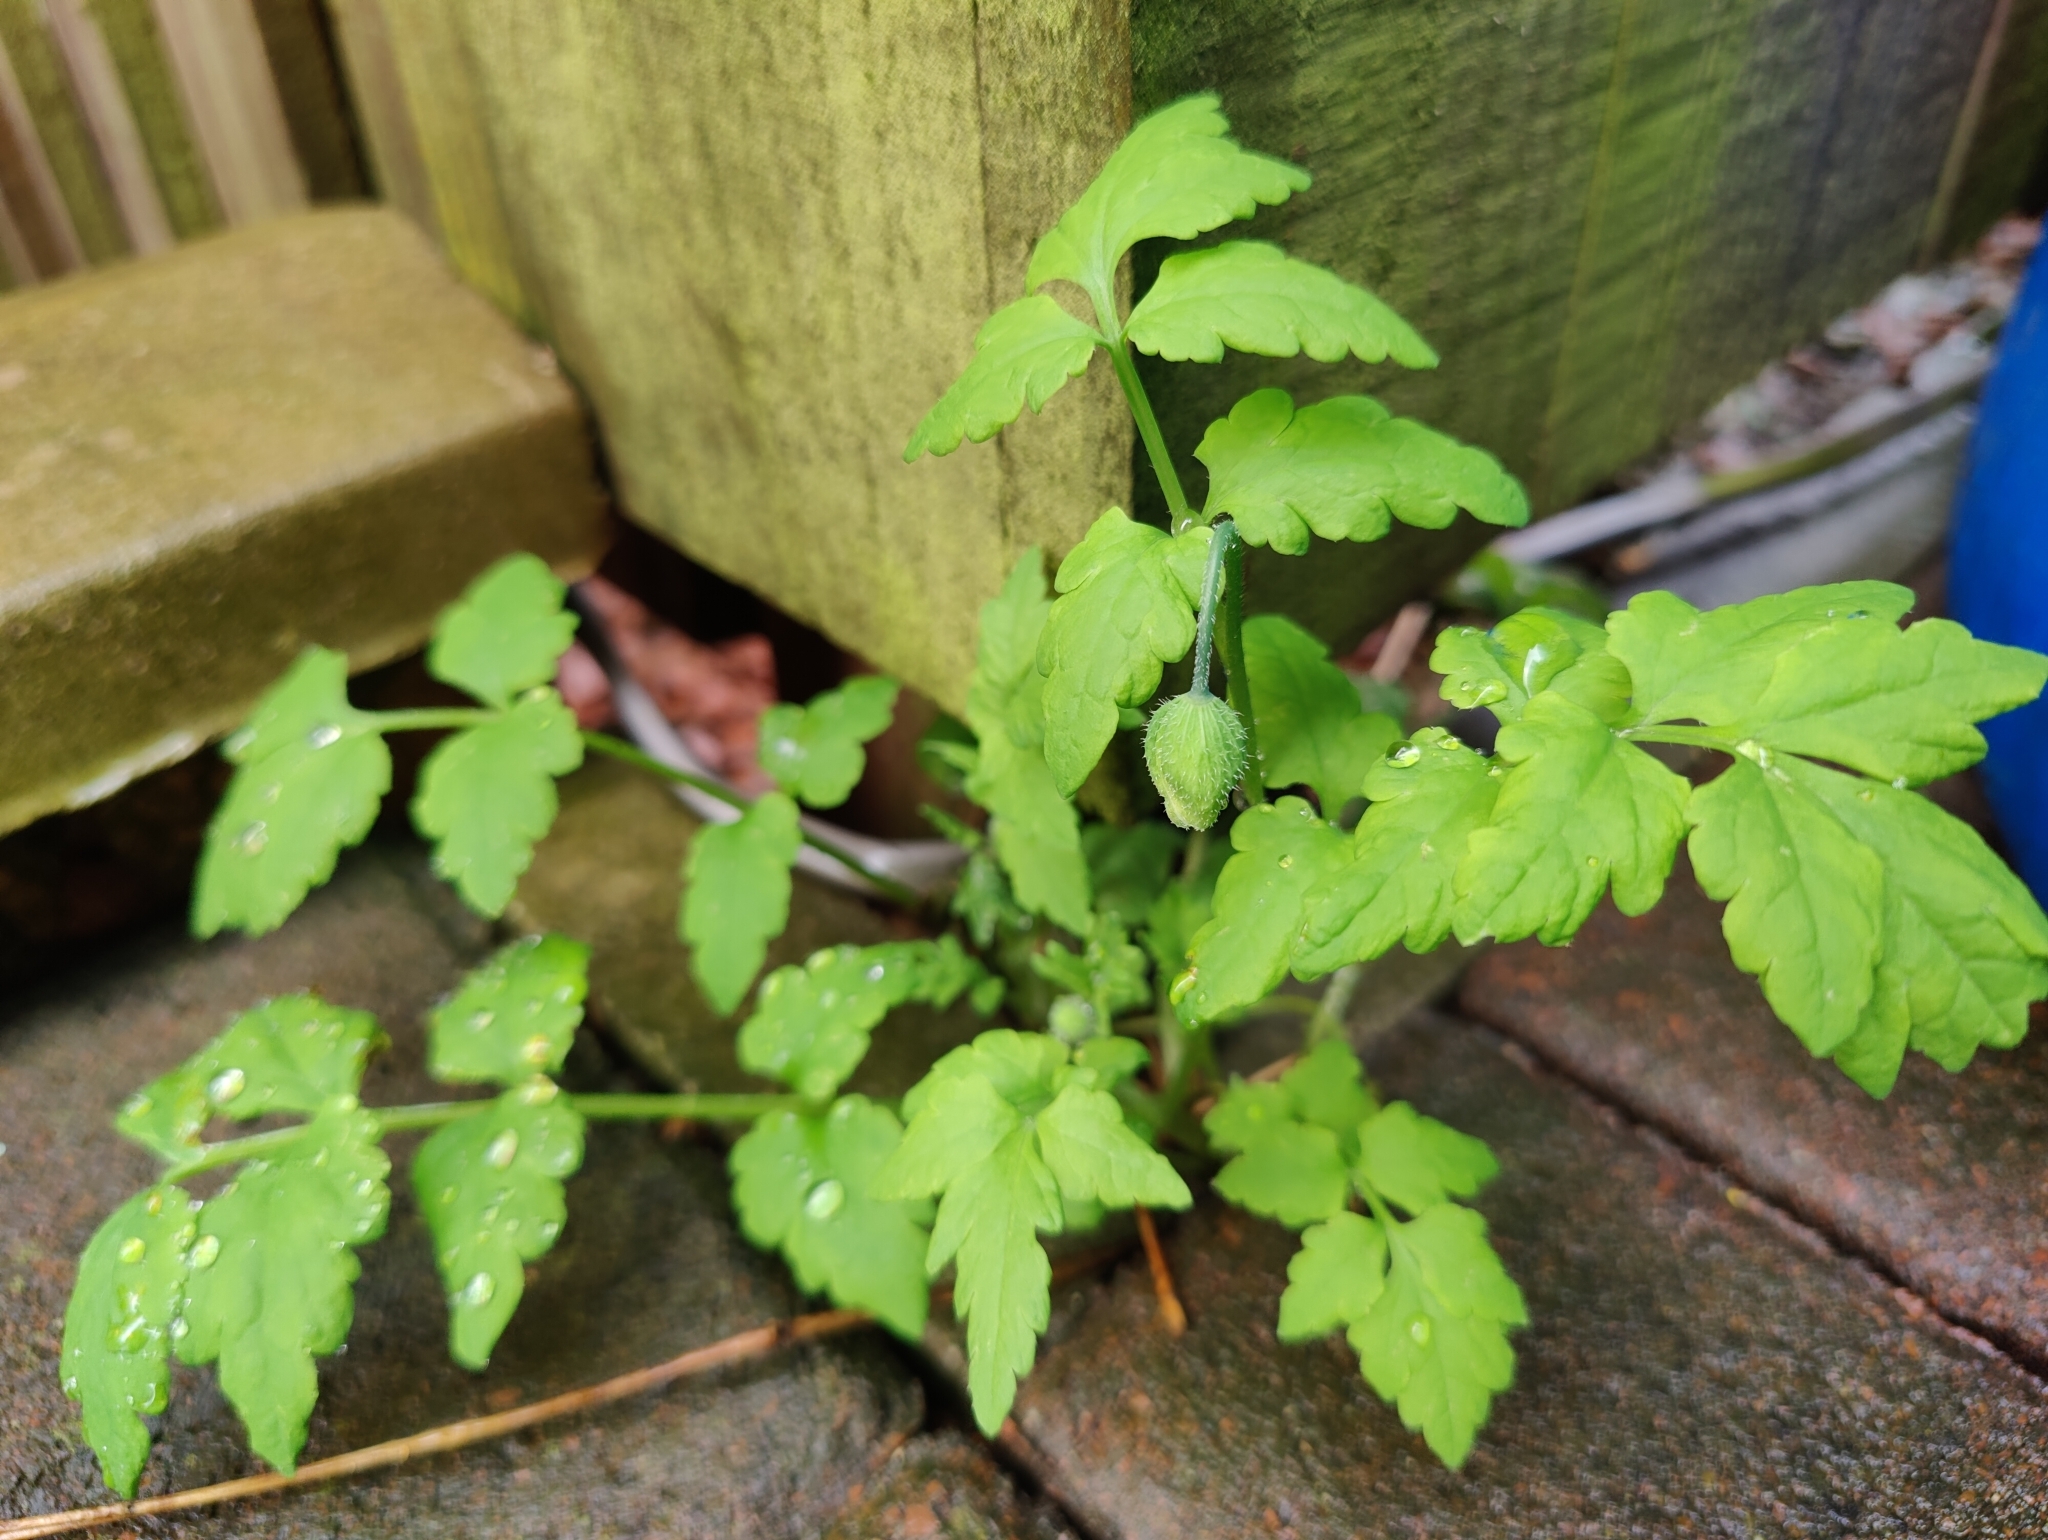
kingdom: Plantae
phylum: Tracheophyta
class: Magnoliopsida
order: Ranunculales
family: Papaveraceae
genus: Papaver
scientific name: Papaver cambricum
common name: Poppy
